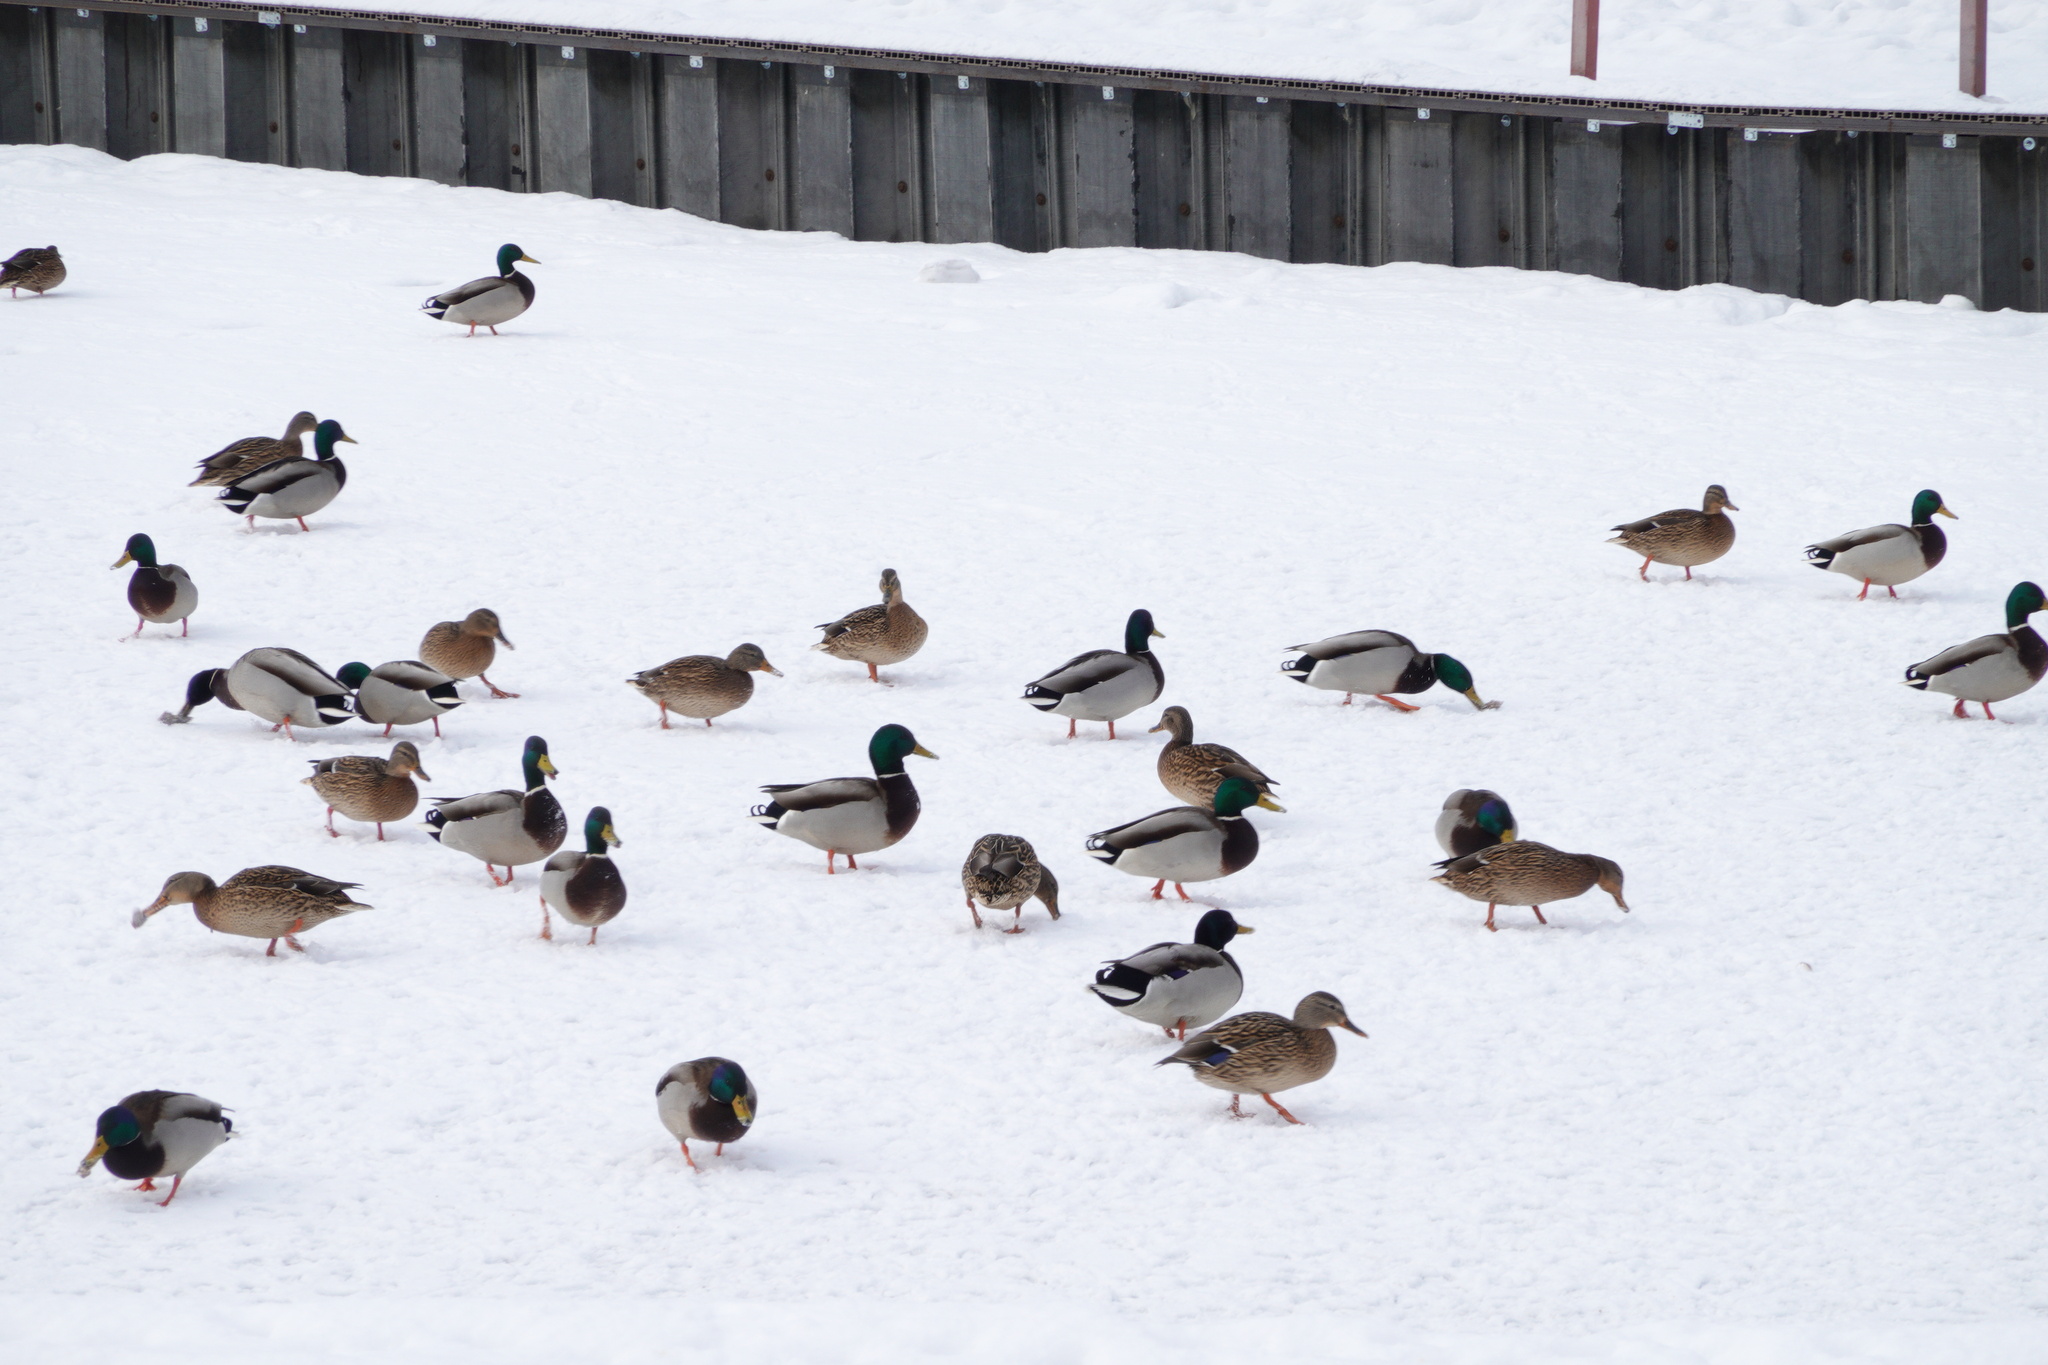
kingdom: Animalia
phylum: Chordata
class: Aves
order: Anseriformes
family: Anatidae
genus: Anas
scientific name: Anas platyrhynchos
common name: Mallard
